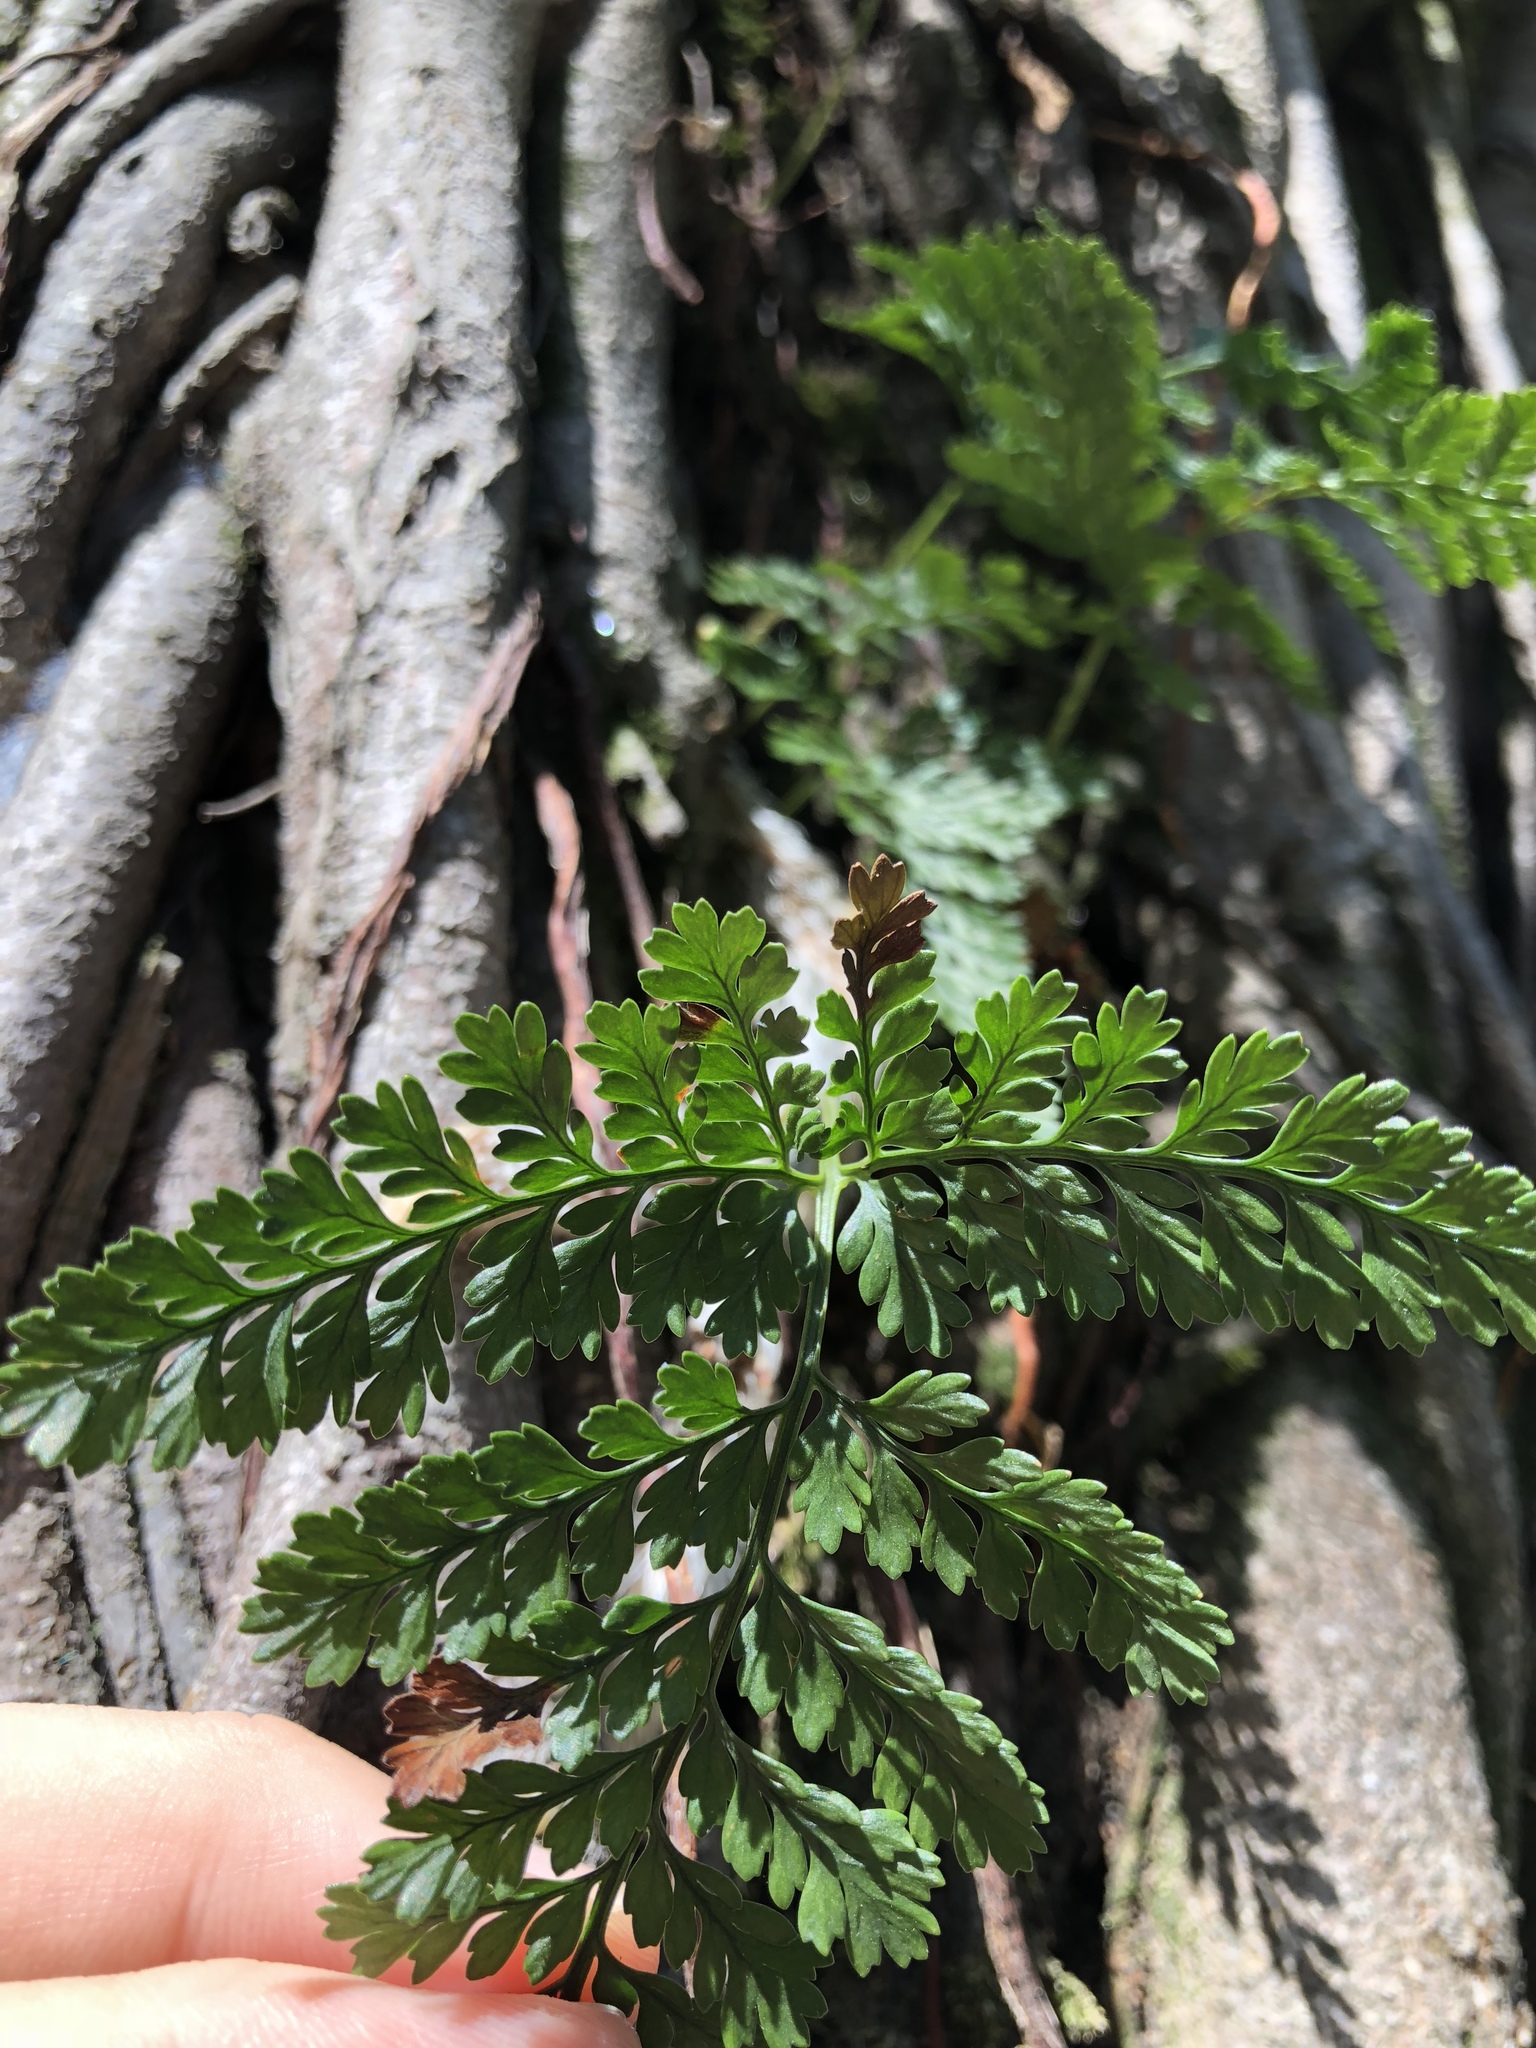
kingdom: Plantae
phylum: Tracheophyta
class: Polypodiopsida
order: Polypodiales
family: Davalliaceae
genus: Davallia
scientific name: Davallia griffithiana
